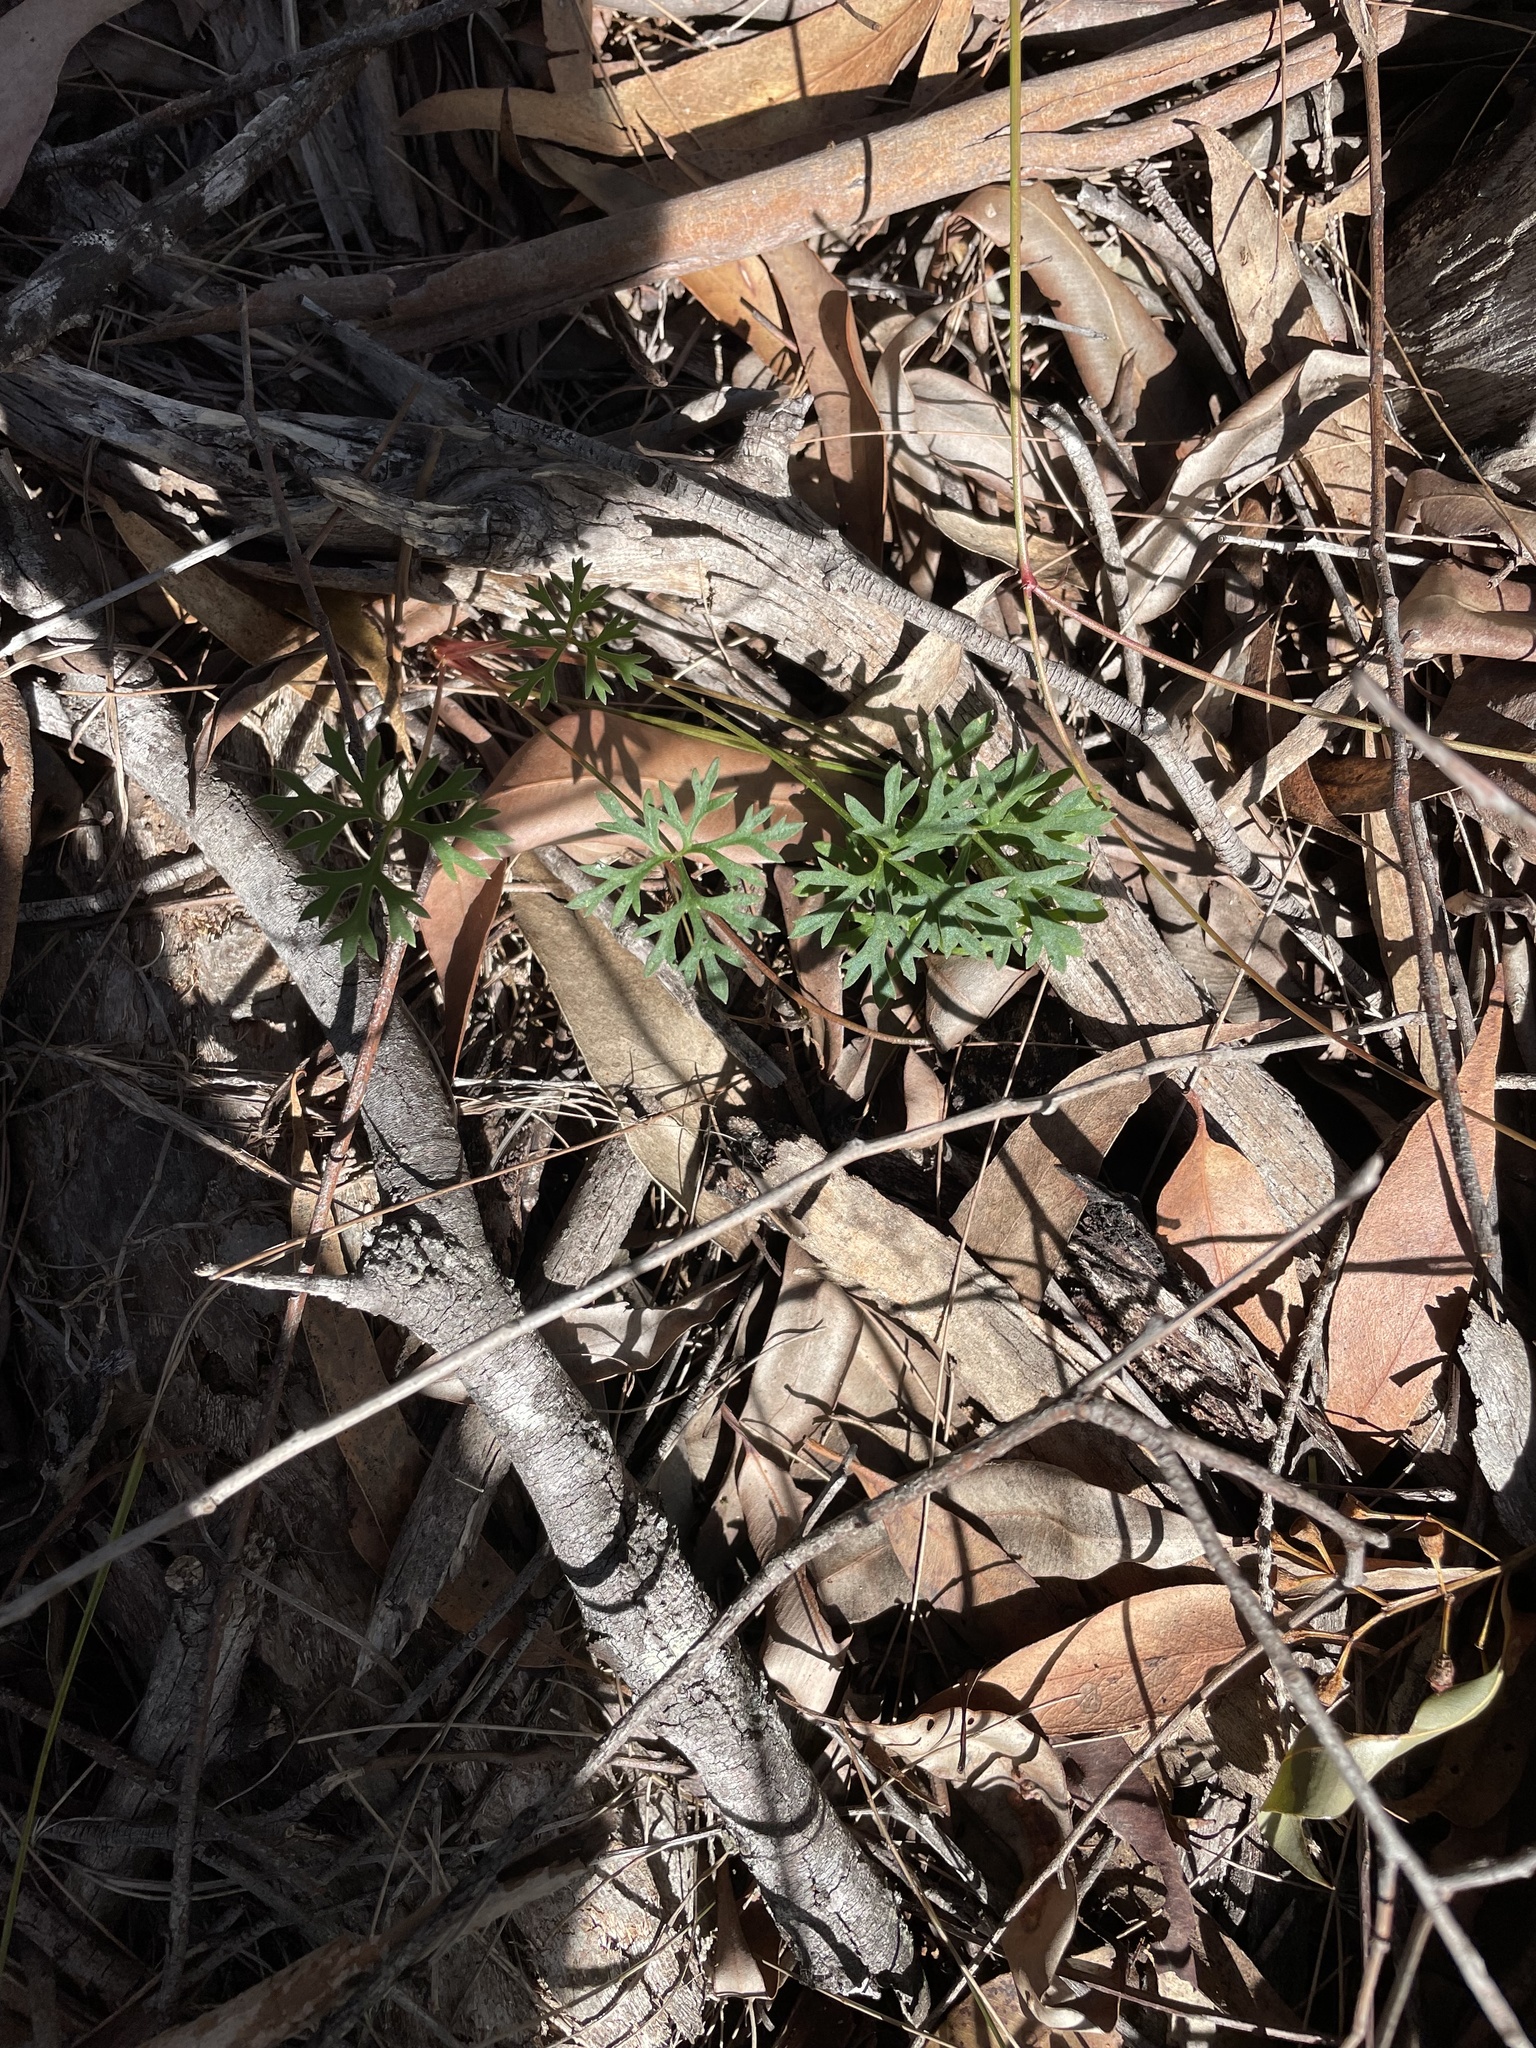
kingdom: Plantae
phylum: Tracheophyta
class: Magnoliopsida
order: Apiales
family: Araliaceae
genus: Trachymene
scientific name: Trachymene incisa
